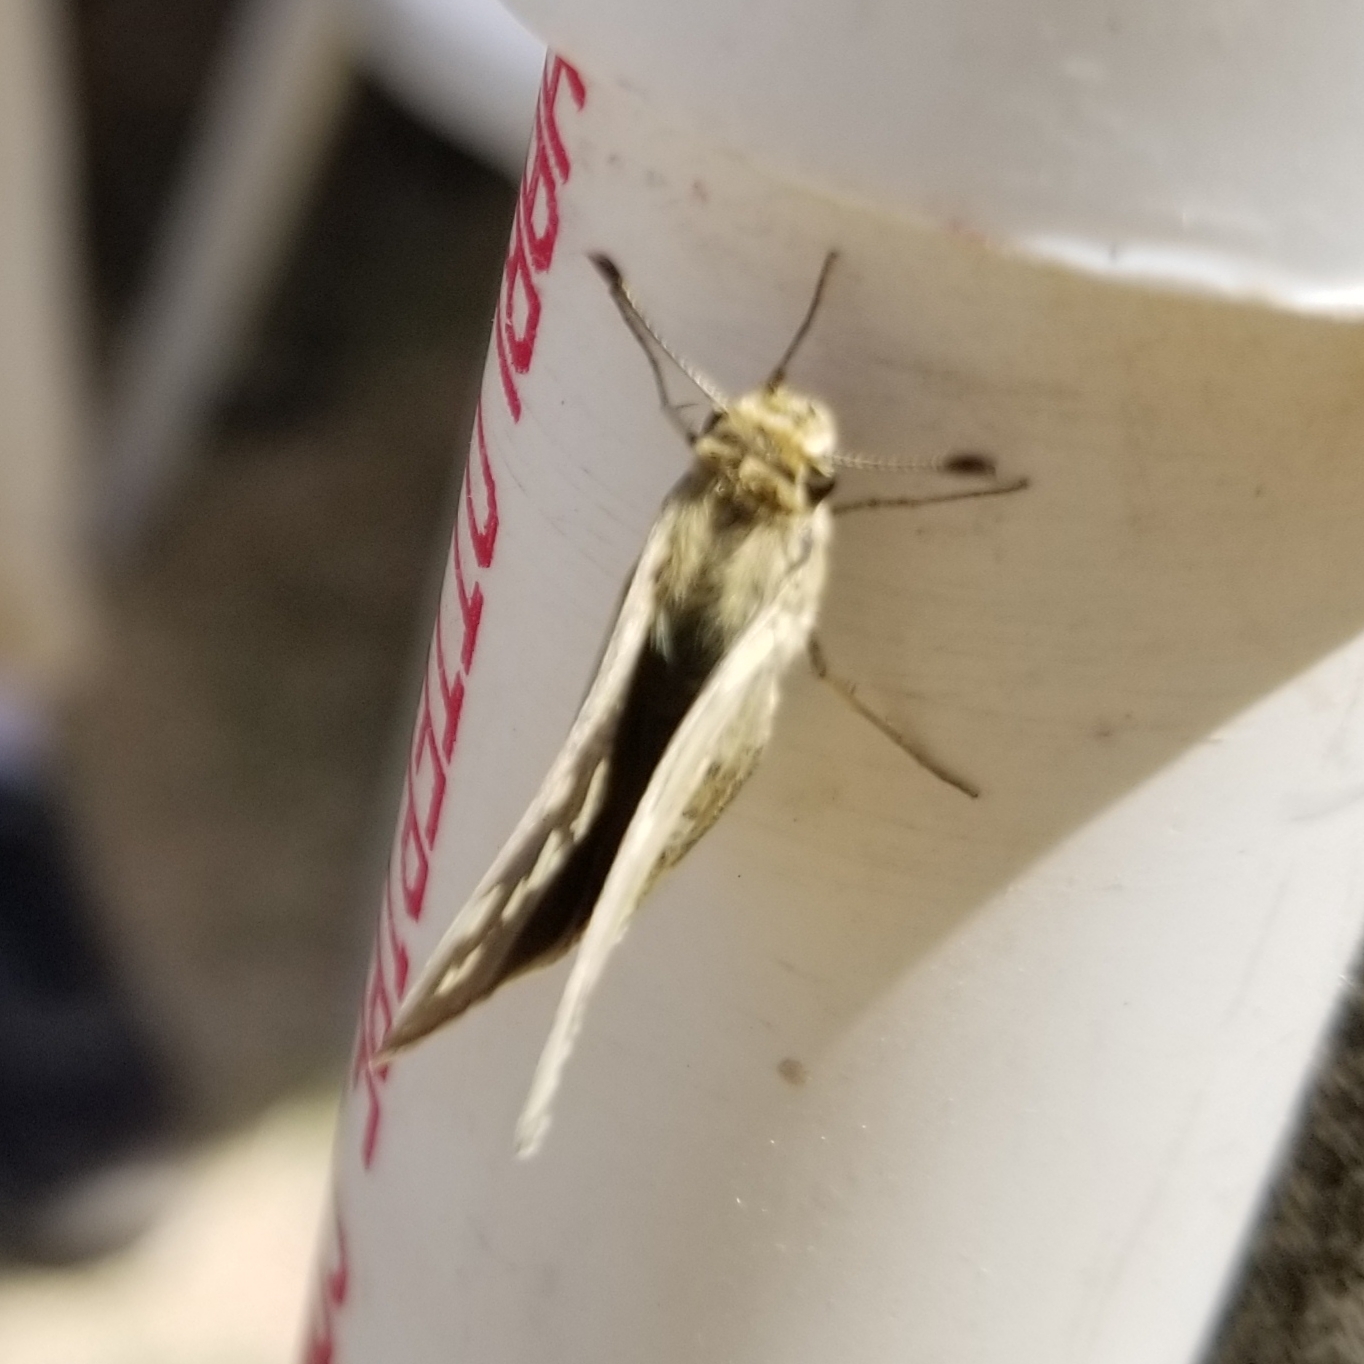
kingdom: Animalia
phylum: Arthropoda
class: Insecta
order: Lepidoptera
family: Hesperiidae
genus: Yvretta
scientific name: Yvretta carus
